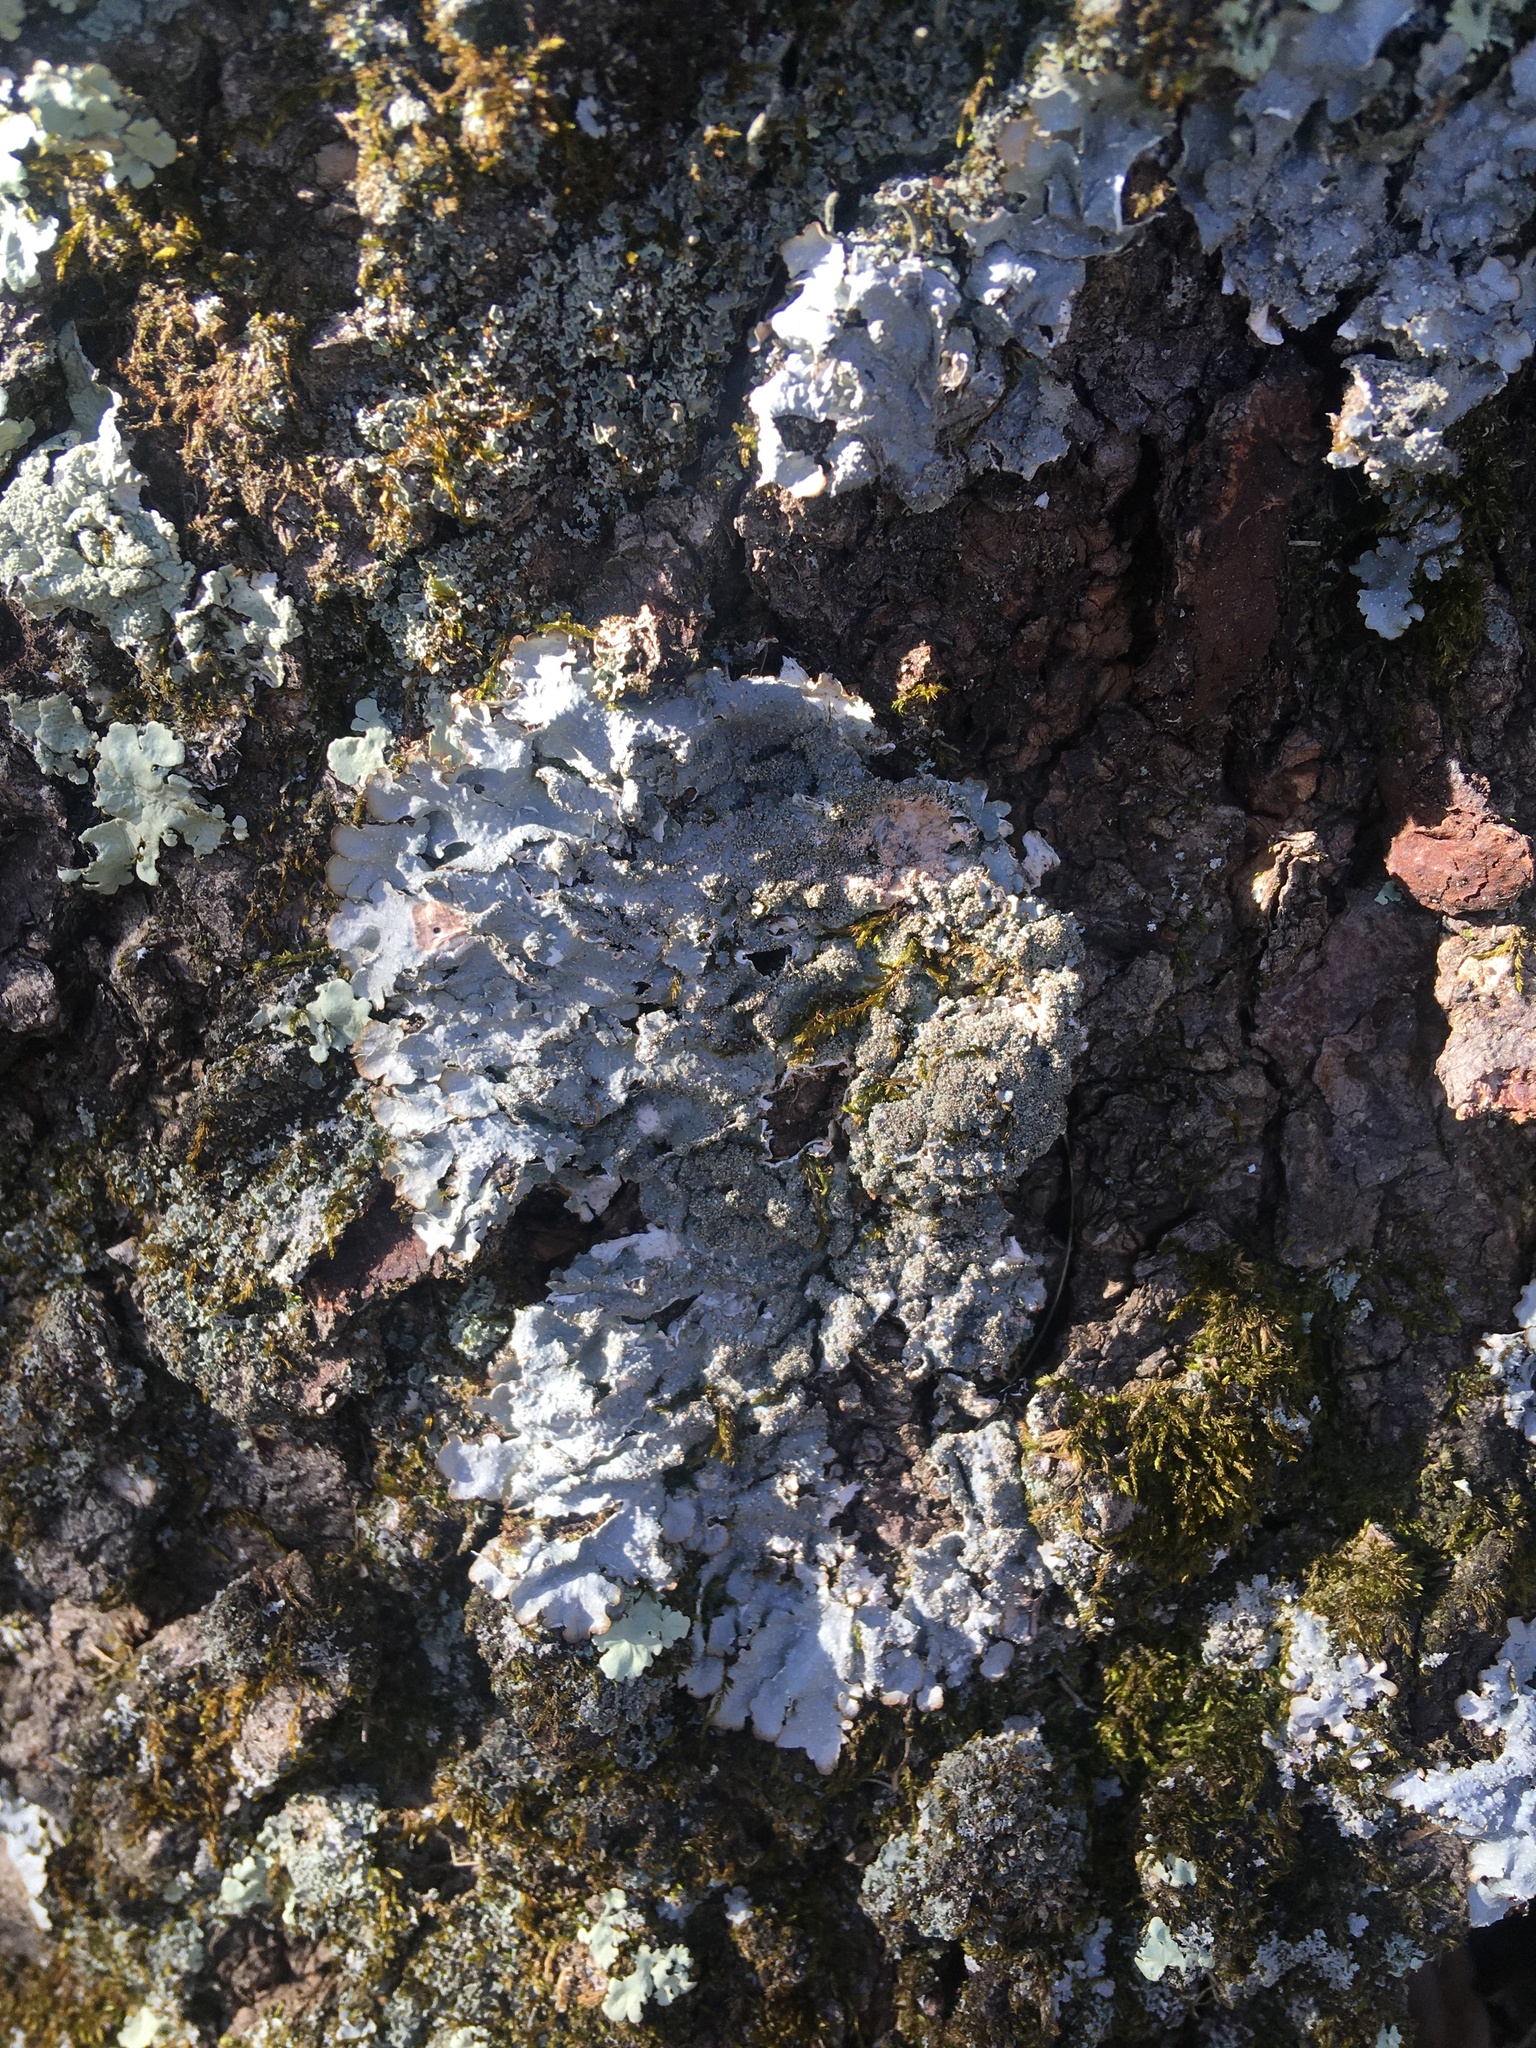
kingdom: Fungi
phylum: Ascomycota
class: Lecanoromycetes
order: Lecanorales
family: Parmeliaceae
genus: Punctelia
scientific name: Punctelia rudecta
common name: Rough speckled shield lichen
